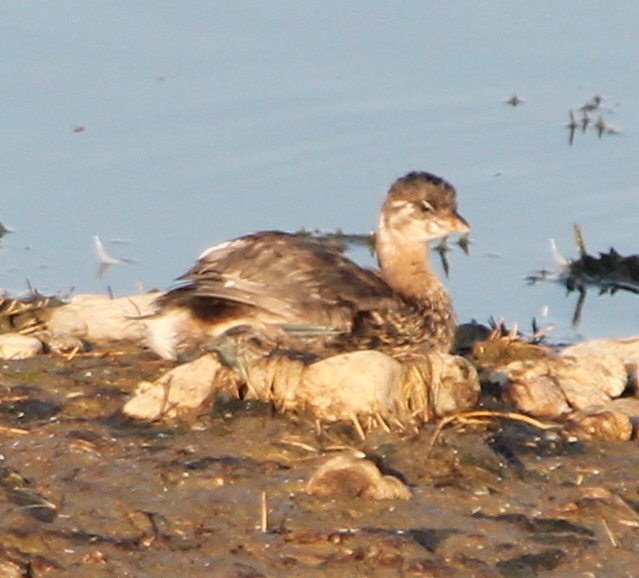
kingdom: Animalia
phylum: Chordata
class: Aves
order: Podicipediformes
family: Podicipedidae
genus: Podilymbus
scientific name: Podilymbus podiceps
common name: Pied-billed grebe
